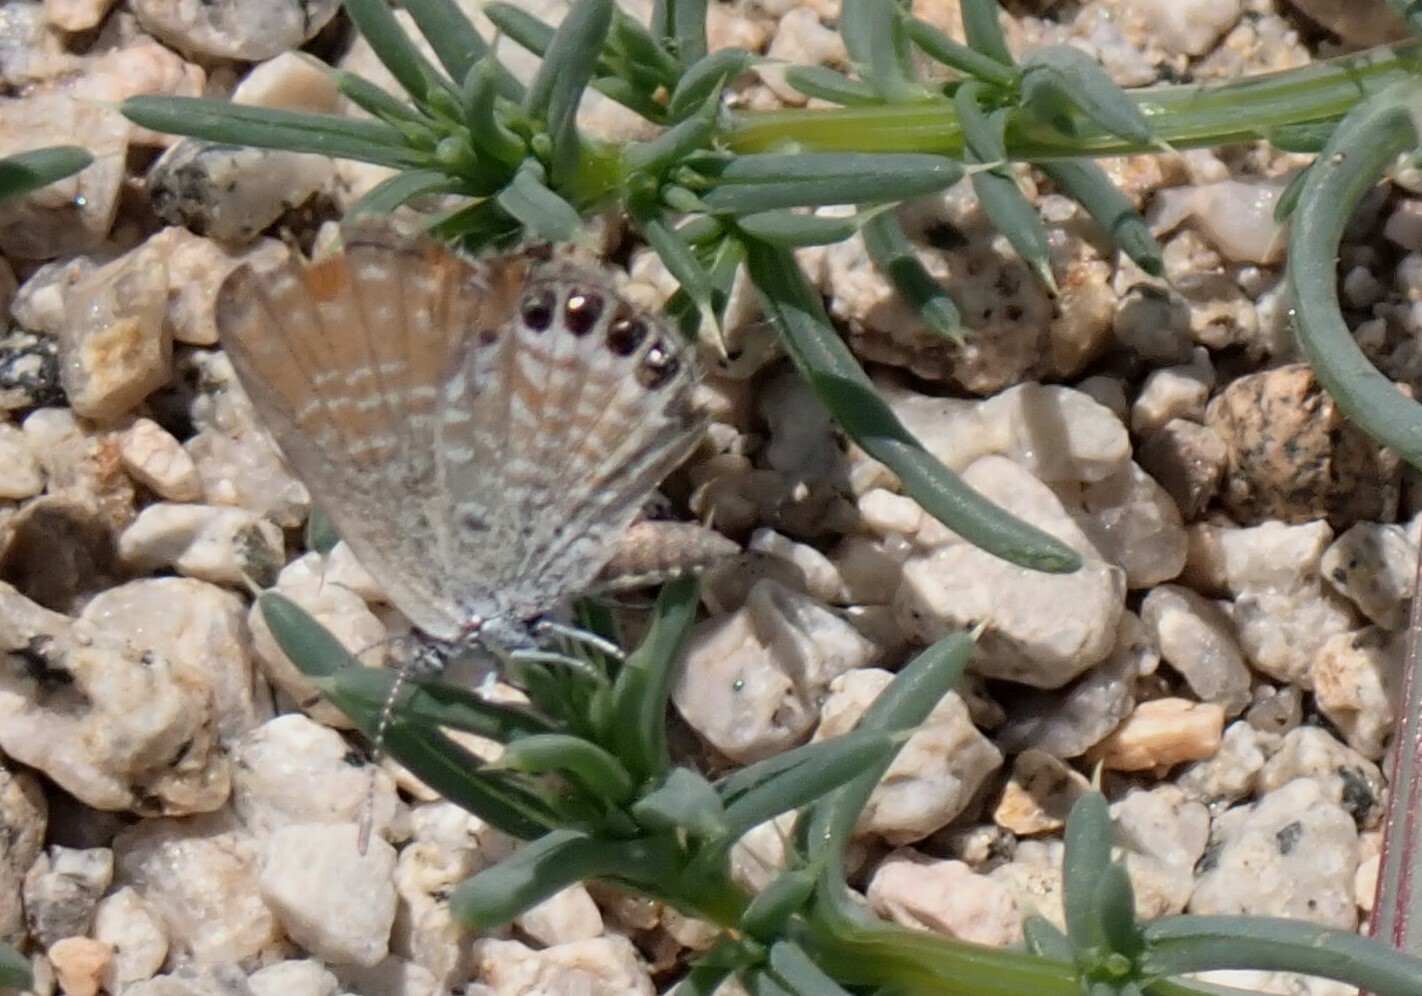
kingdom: Animalia
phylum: Arthropoda
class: Insecta
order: Lepidoptera
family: Lycaenidae
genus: Brephidium
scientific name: Brephidium exilis
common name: Pygmy blue
